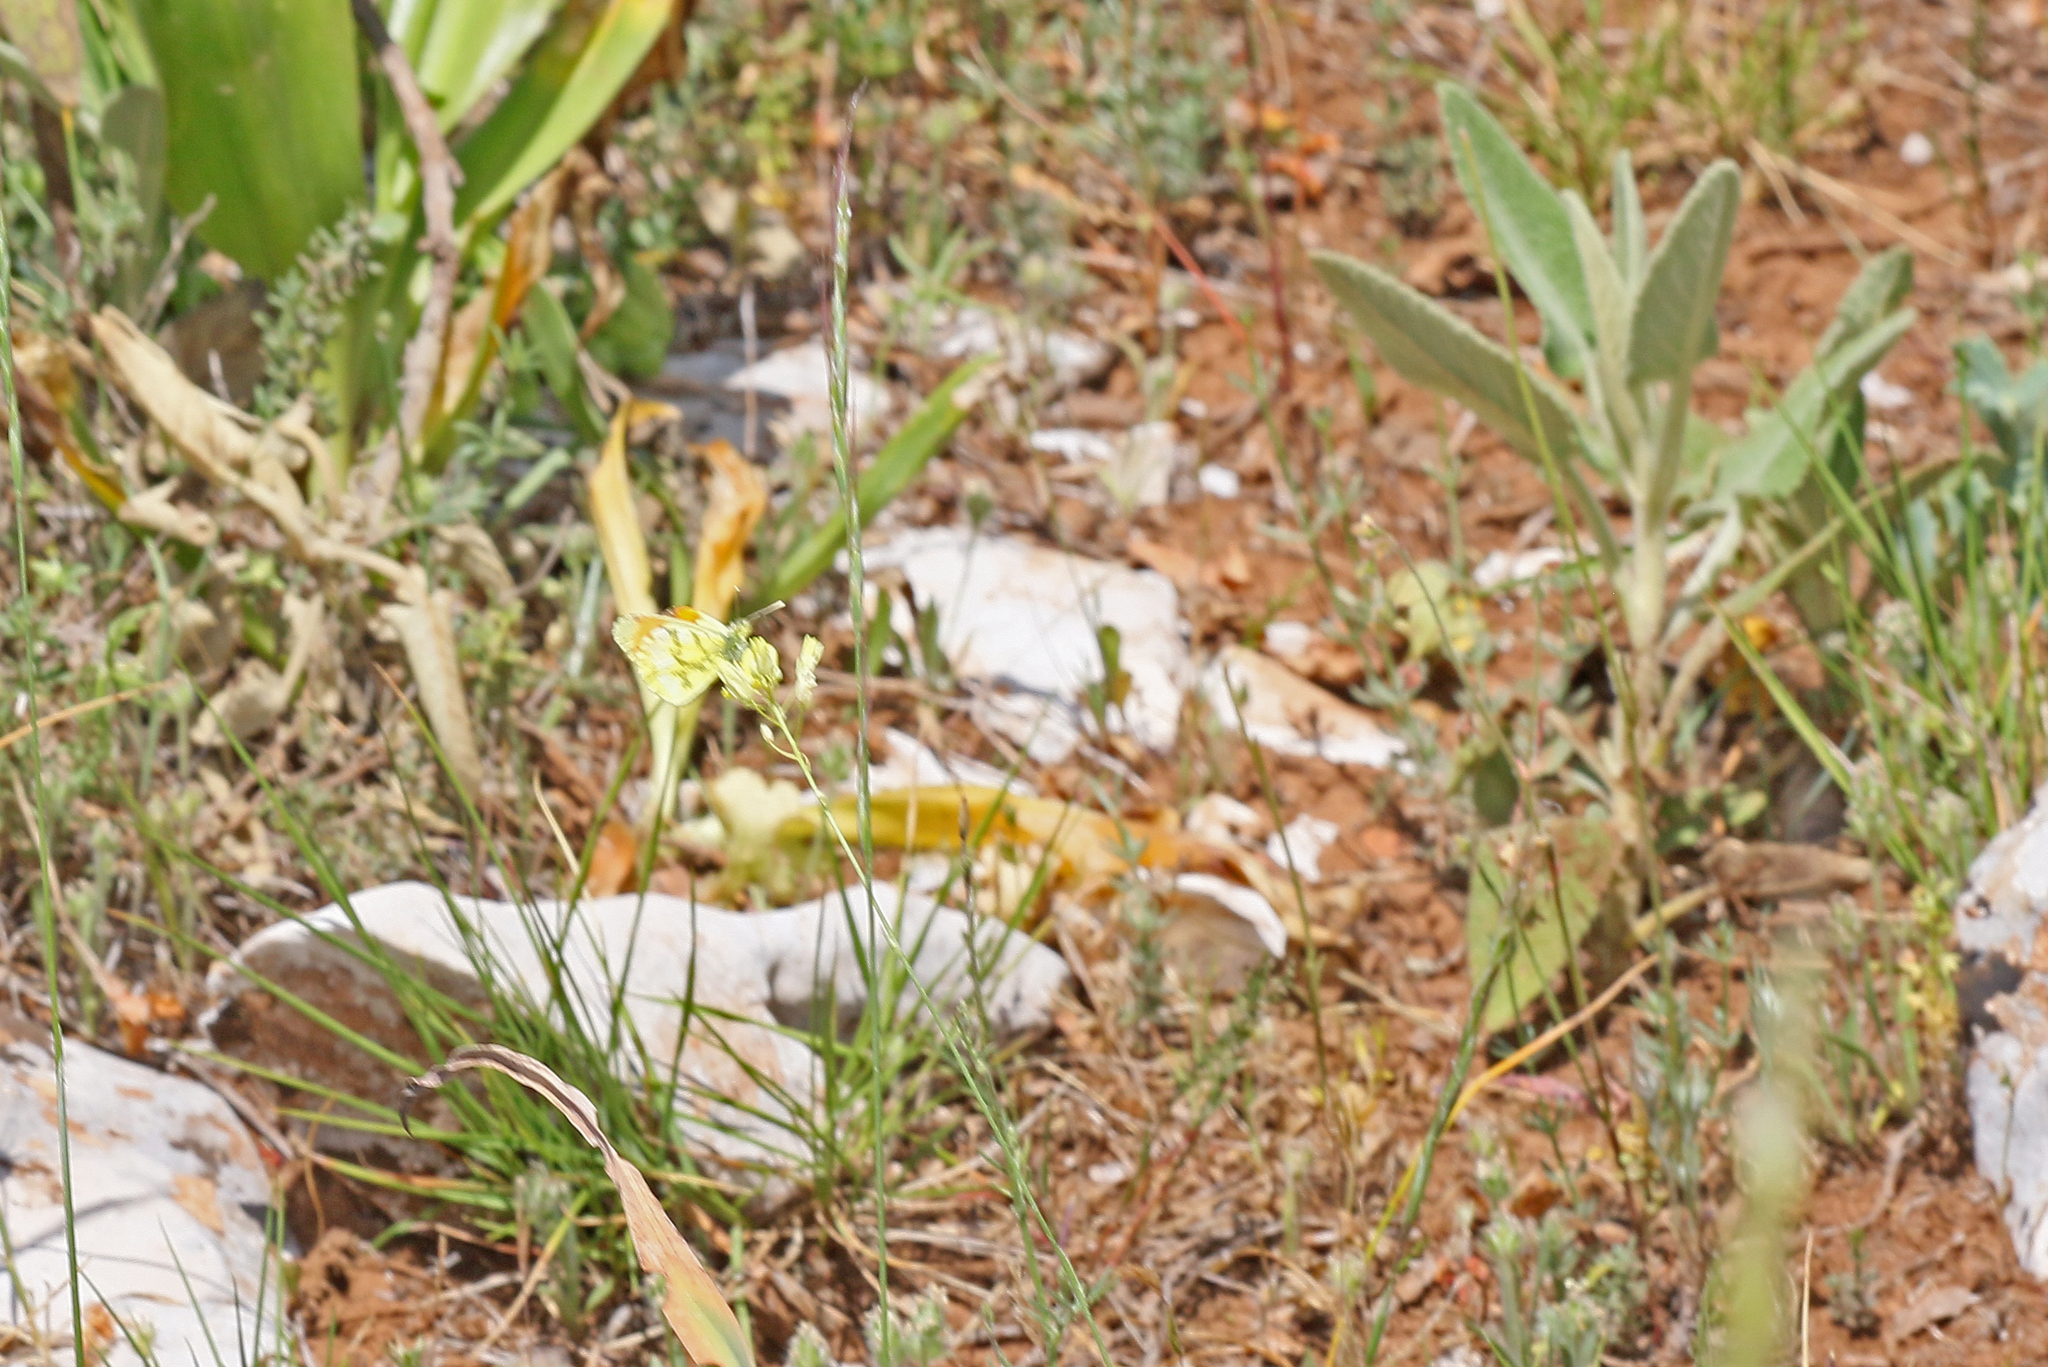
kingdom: Animalia
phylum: Arthropoda
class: Insecta
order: Lepidoptera
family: Pieridae
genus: Anthocharis
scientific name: Anthocharis euphenoides
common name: Provence orange-tip
